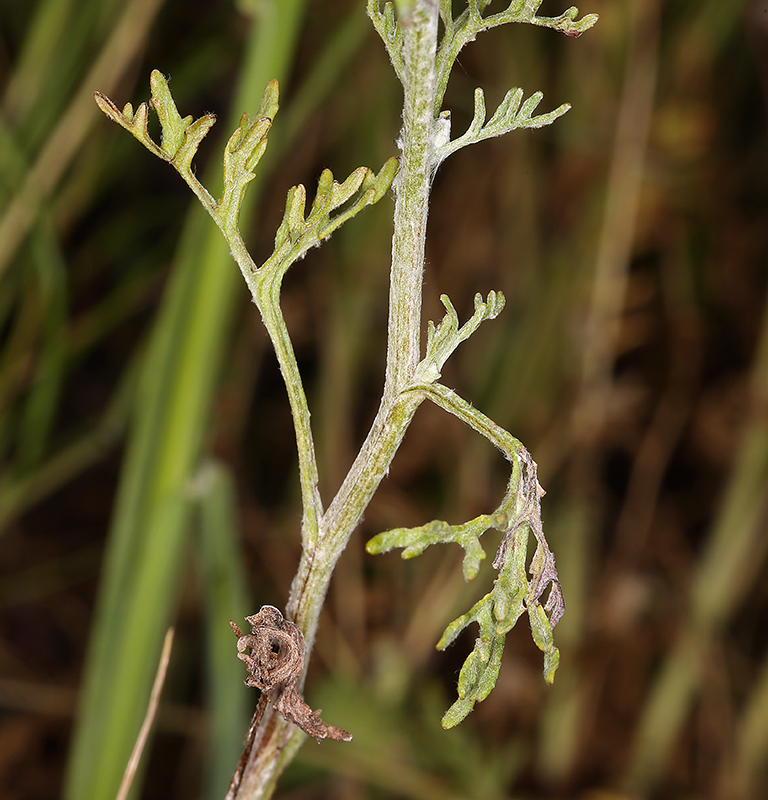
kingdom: Plantae
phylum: Tracheophyta
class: Magnoliopsida
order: Asterales
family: Asteraceae
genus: Pseudobahia
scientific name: Pseudobahia peirsonii
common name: Tulare psudobahia
